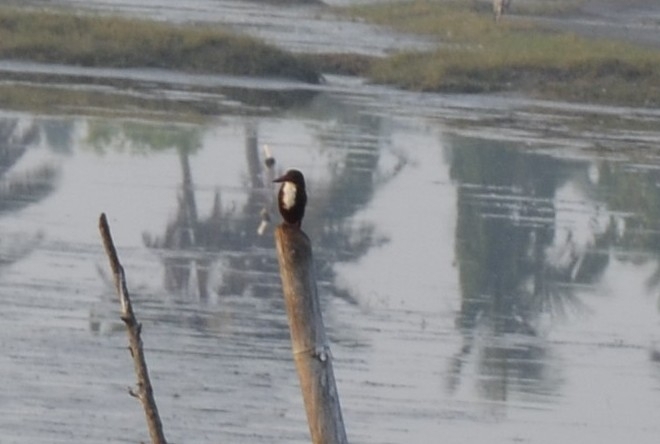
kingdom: Animalia
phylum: Chordata
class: Aves
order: Coraciiformes
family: Alcedinidae
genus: Halcyon
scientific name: Halcyon smyrnensis
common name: White-throated kingfisher
